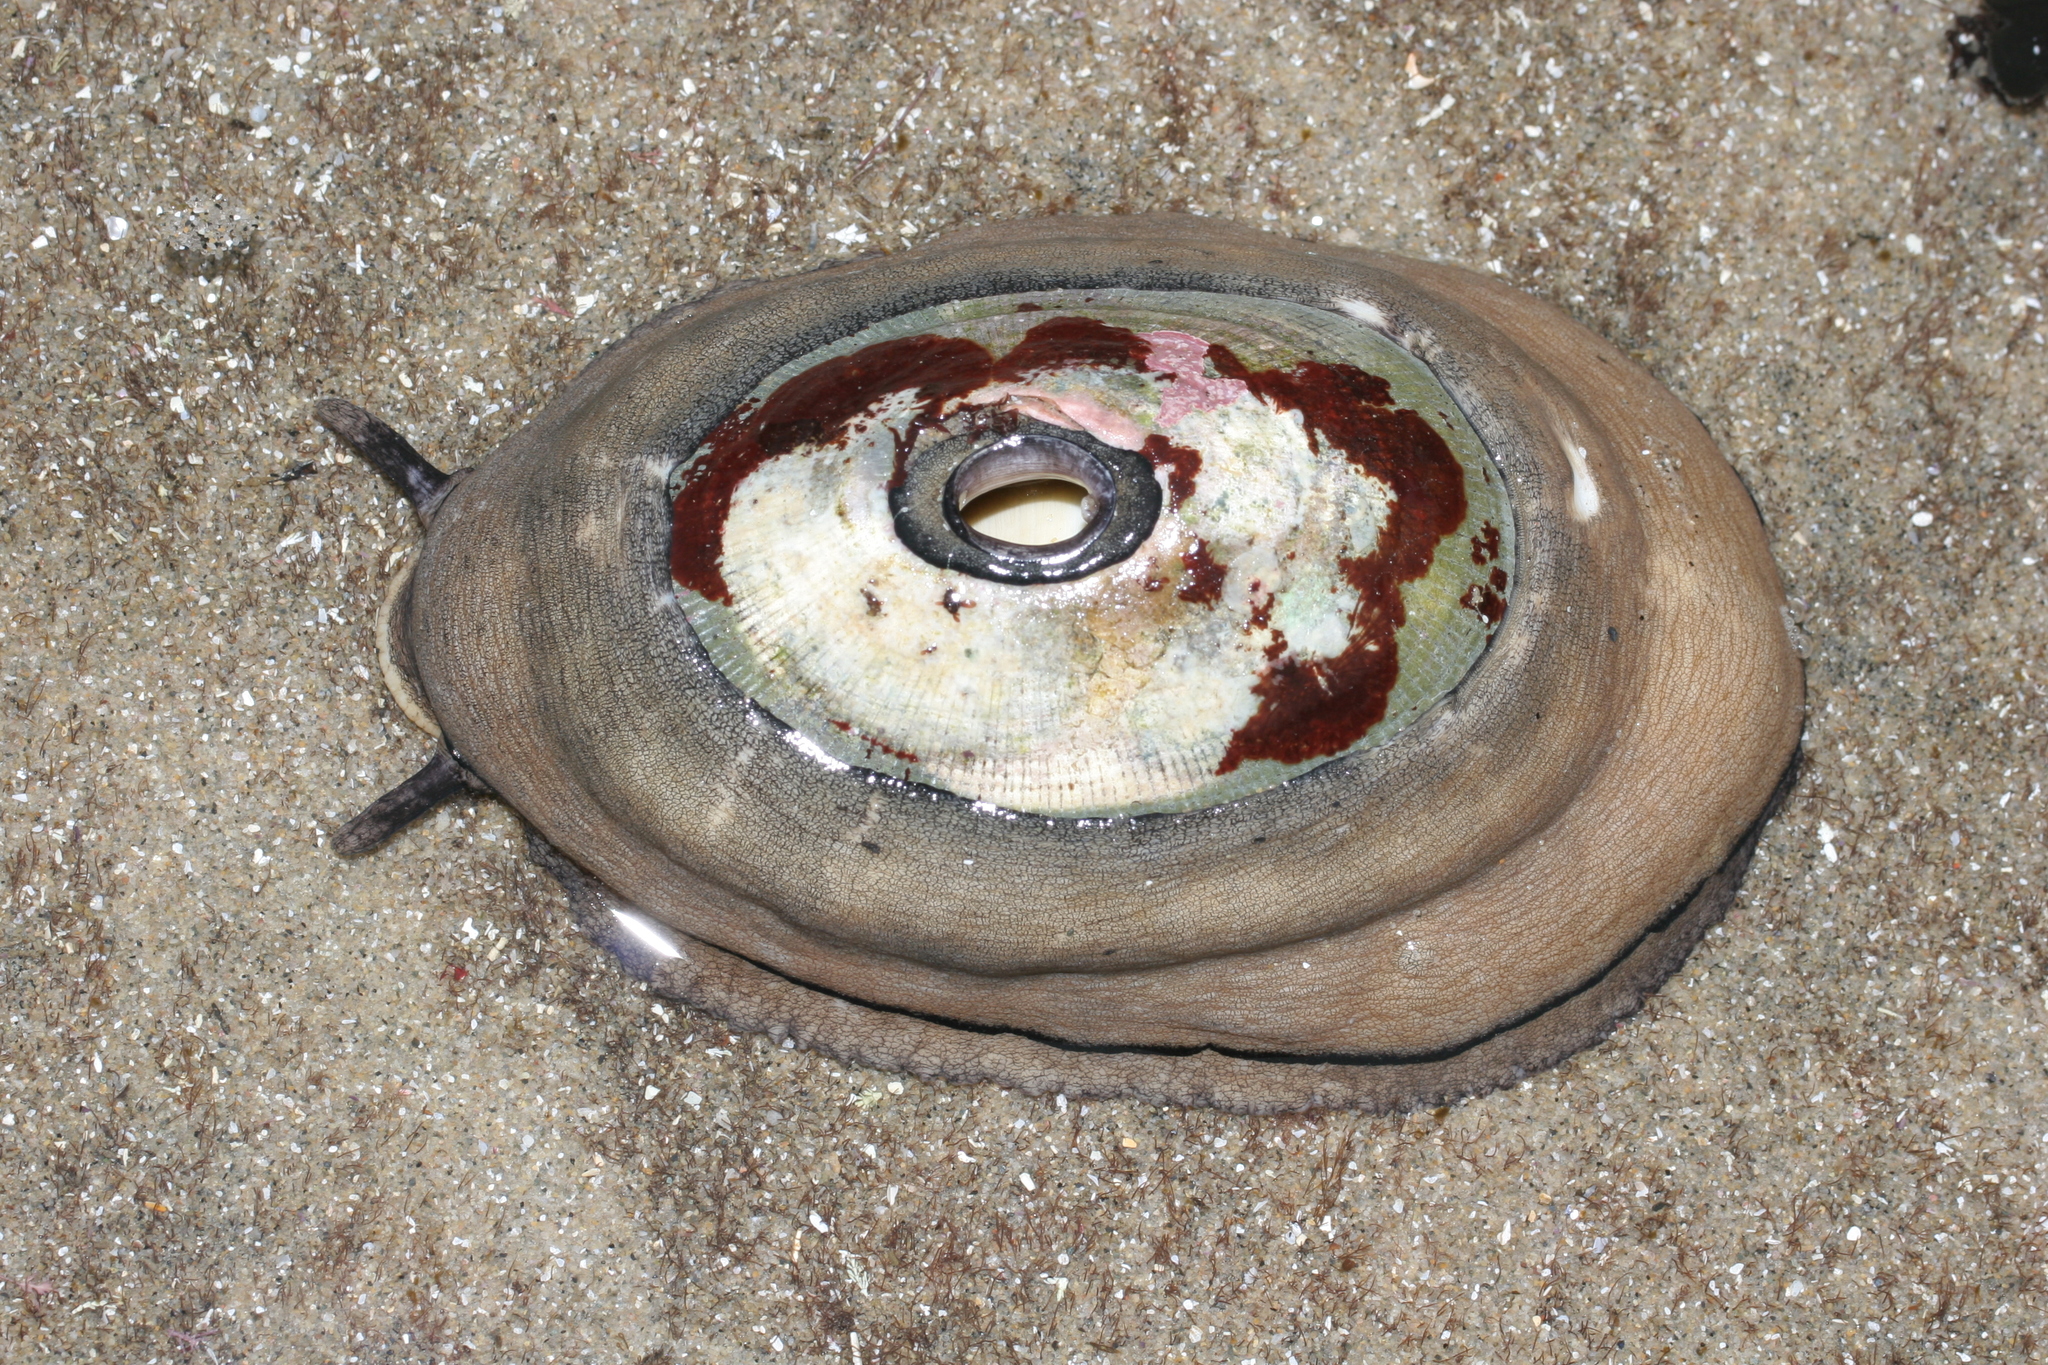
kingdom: Animalia
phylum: Mollusca
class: Gastropoda
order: Lepetellida
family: Fissurellidae
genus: Megathura
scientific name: Megathura crenulata
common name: Giant keyhole limpet
